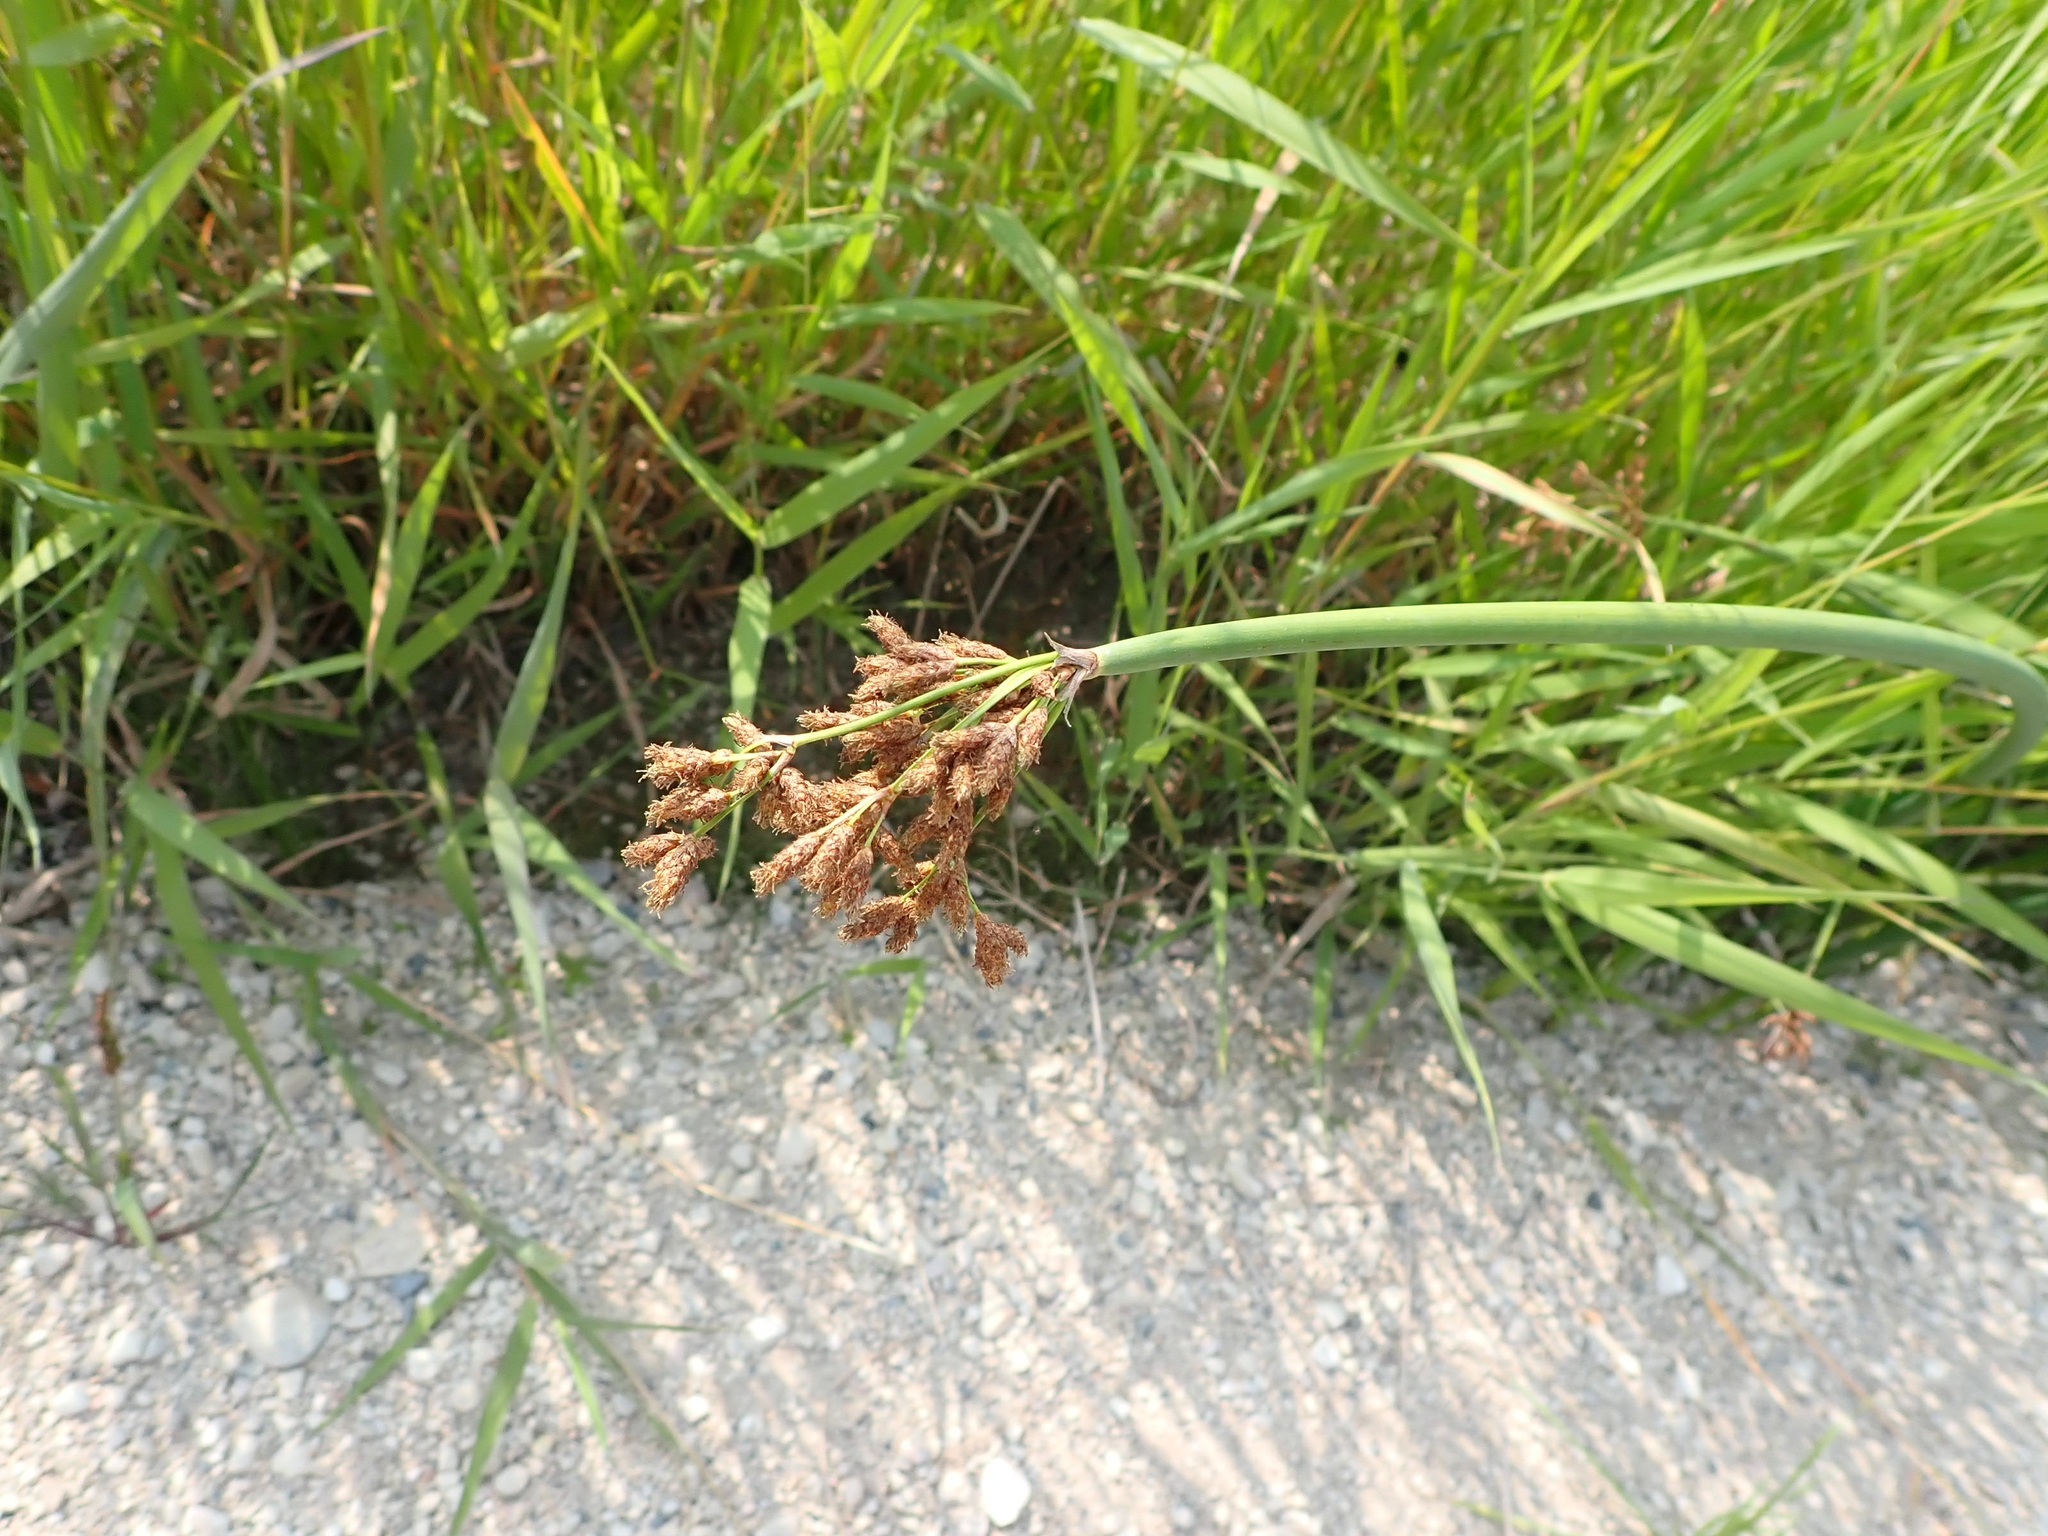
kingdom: Plantae
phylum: Tracheophyta
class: Liliopsida
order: Poales
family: Cyperaceae
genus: Schoenoplectus
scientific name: Schoenoplectus tabernaemontani
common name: Grey club-rush
